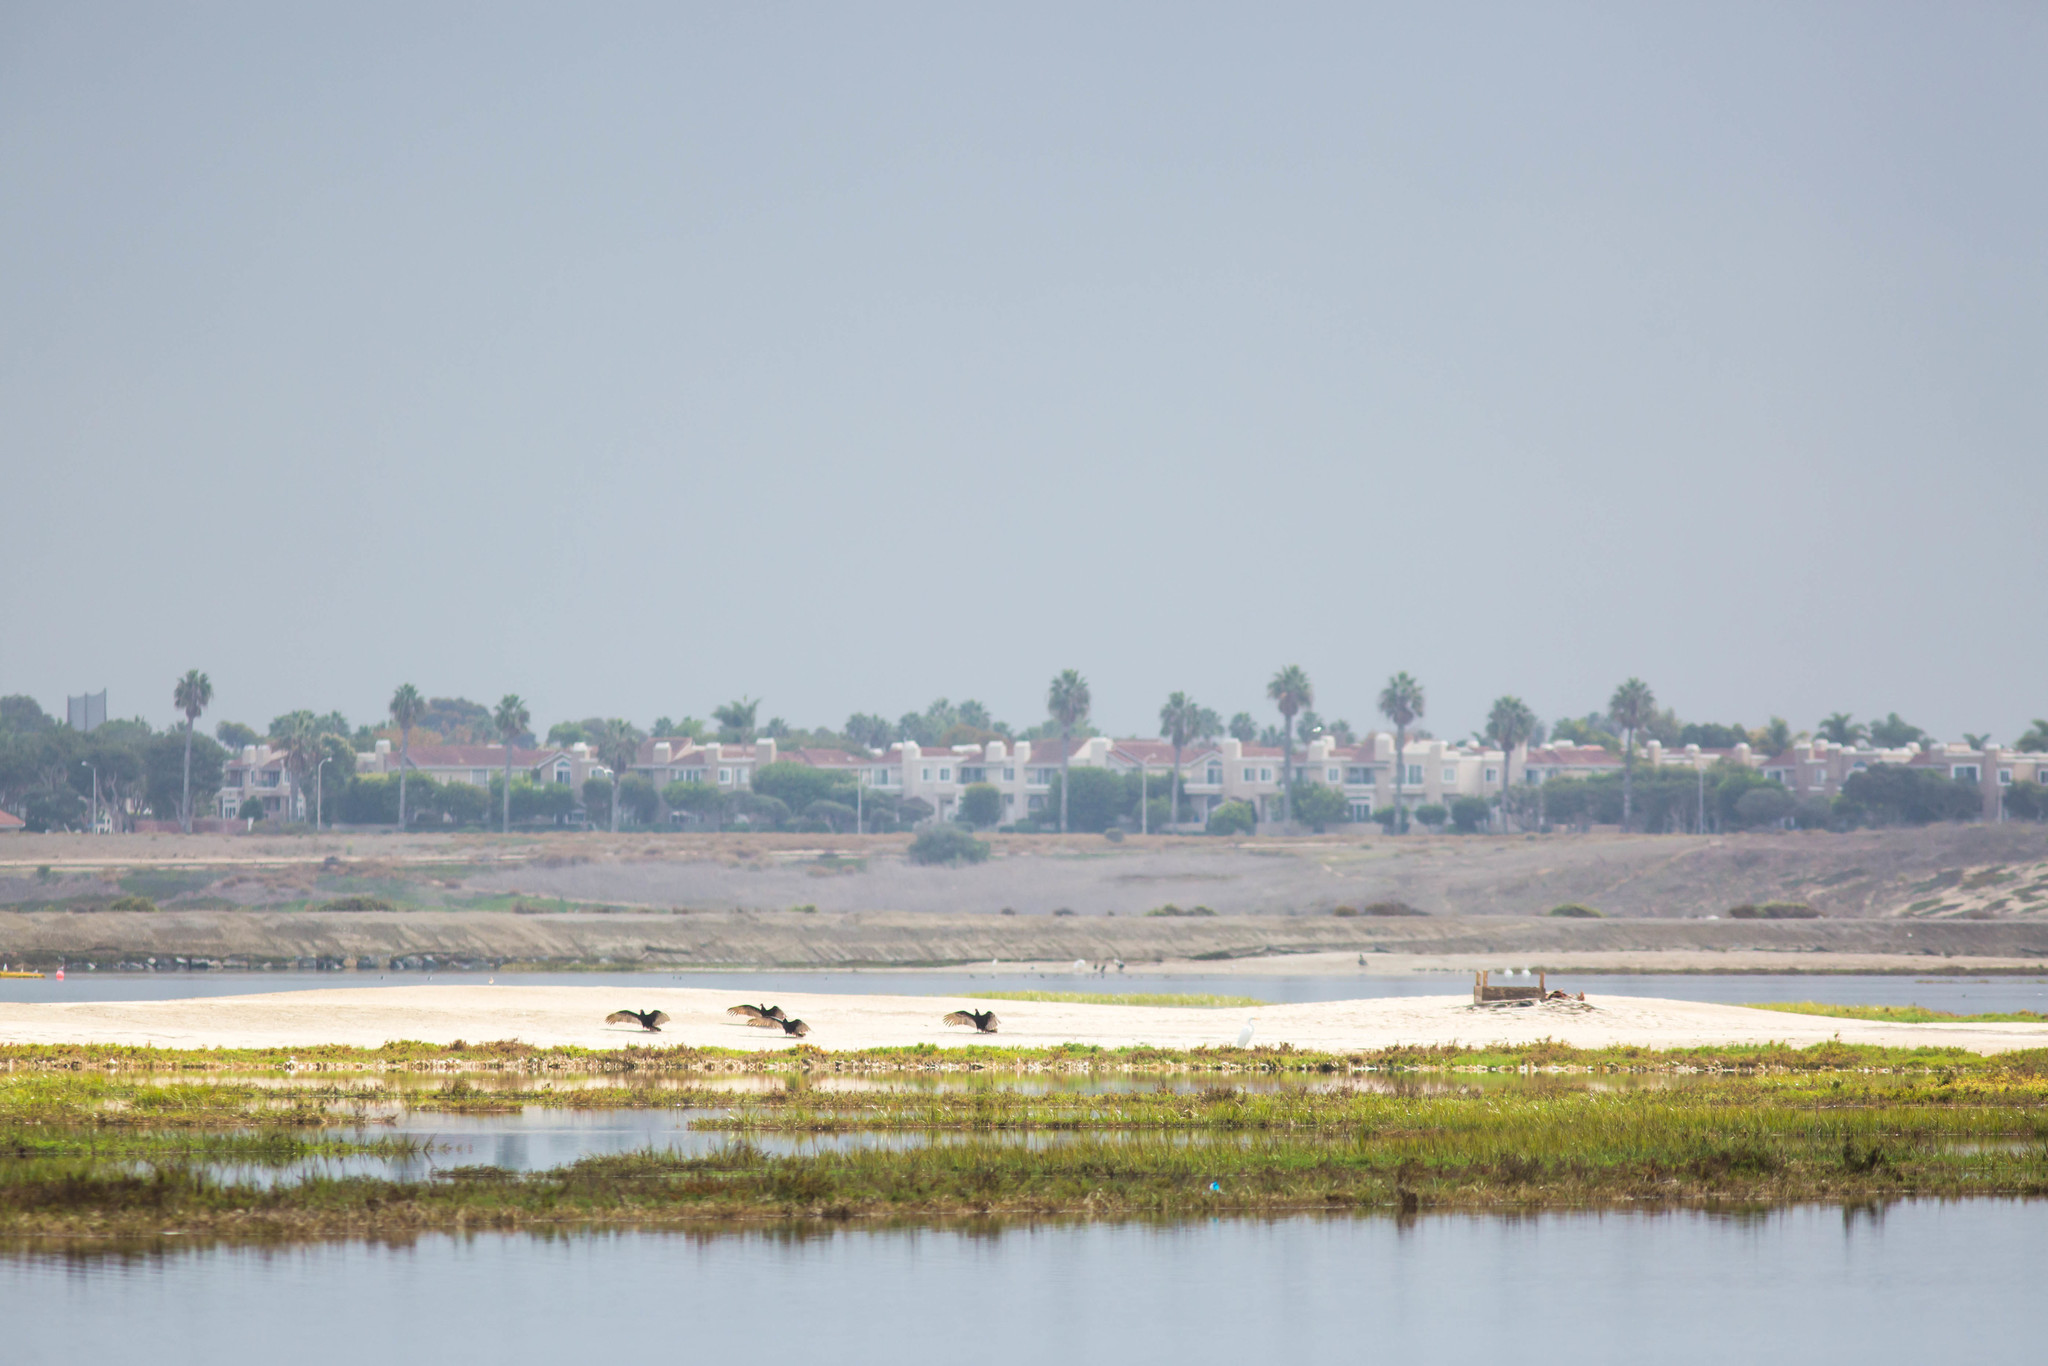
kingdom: Animalia
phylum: Chordata
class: Aves
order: Accipitriformes
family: Cathartidae
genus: Cathartes
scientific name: Cathartes aura
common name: Turkey vulture
